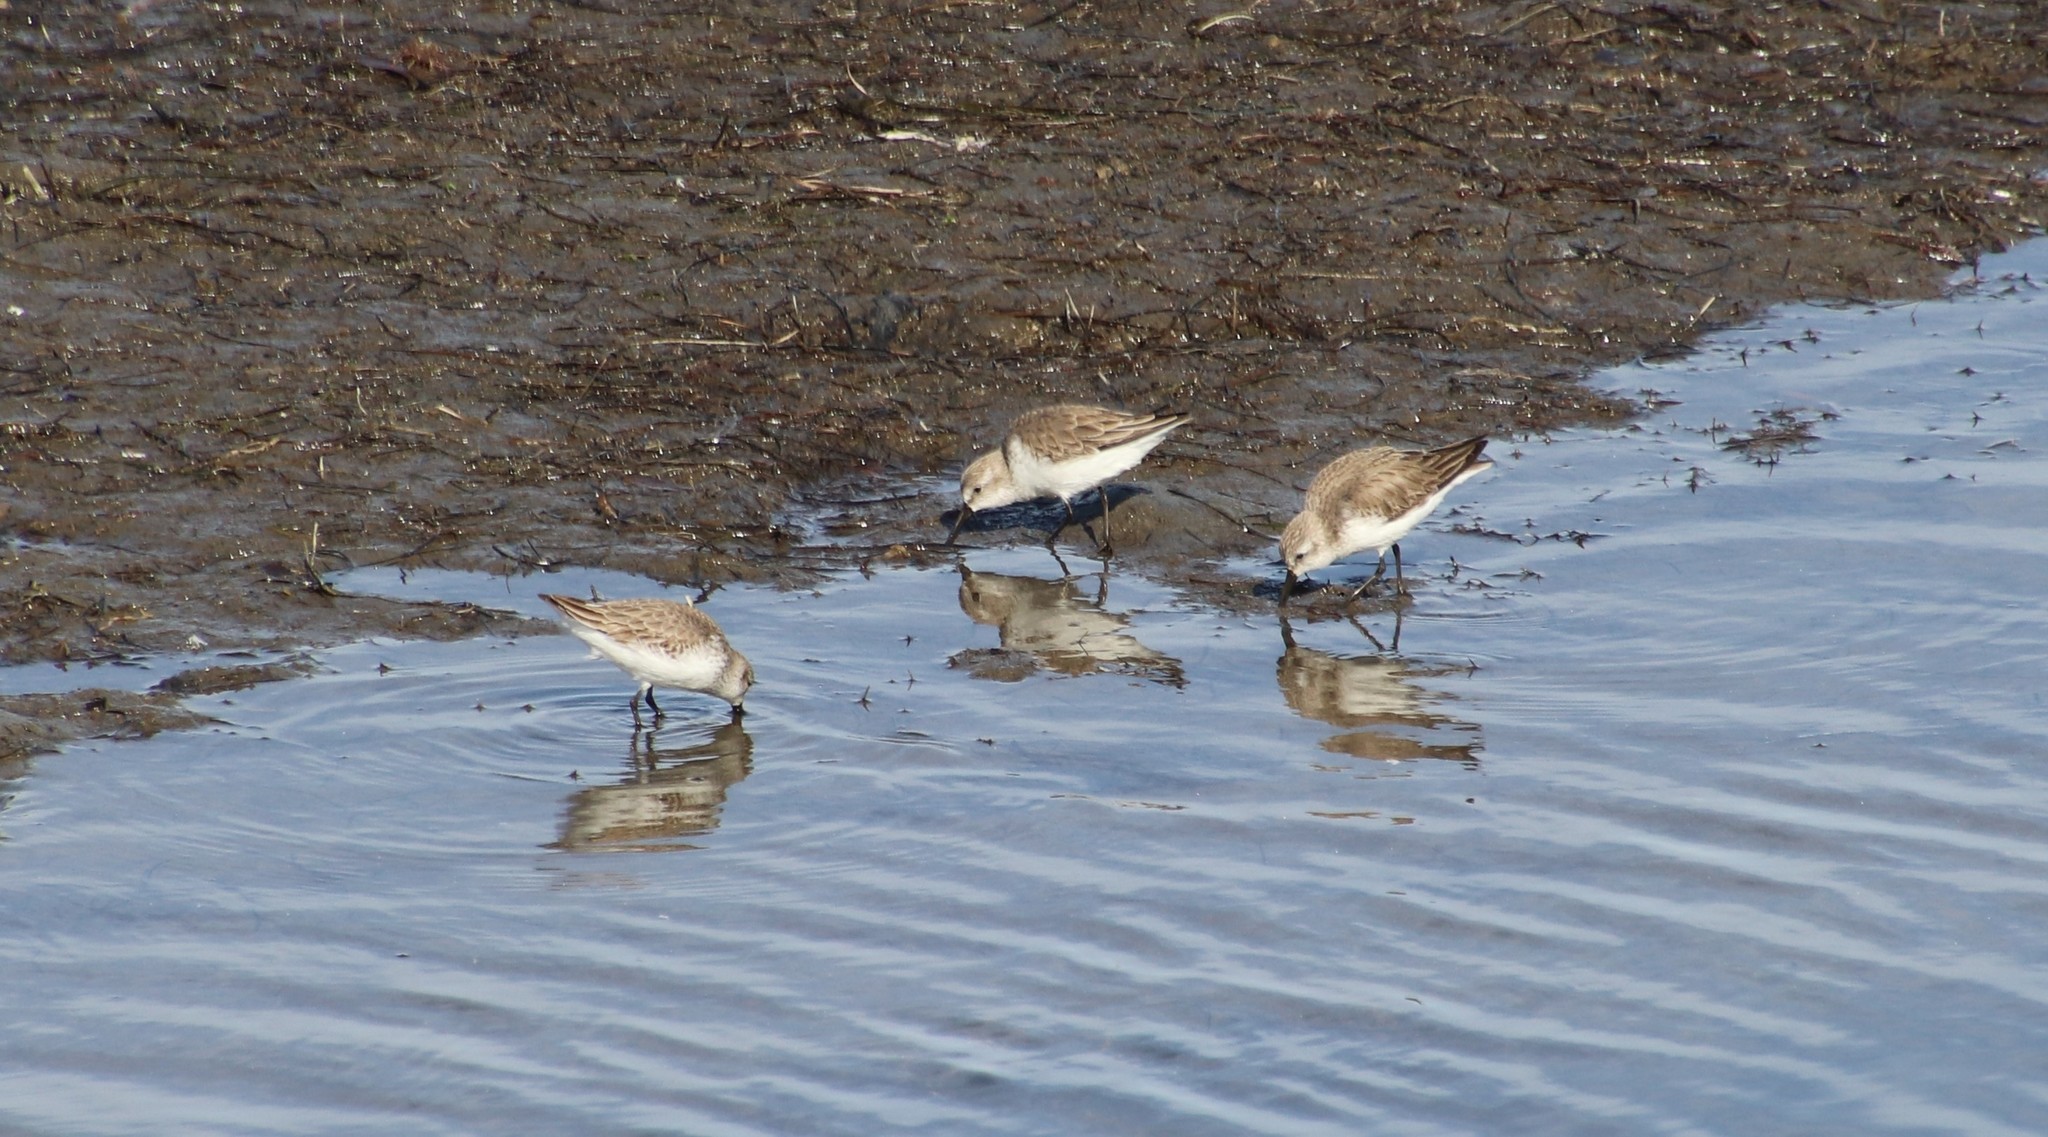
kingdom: Animalia
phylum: Chordata
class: Aves
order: Charadriiformes
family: Scolopacidae
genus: Calidris
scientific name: Calidris mauri
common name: Western sandpiper
